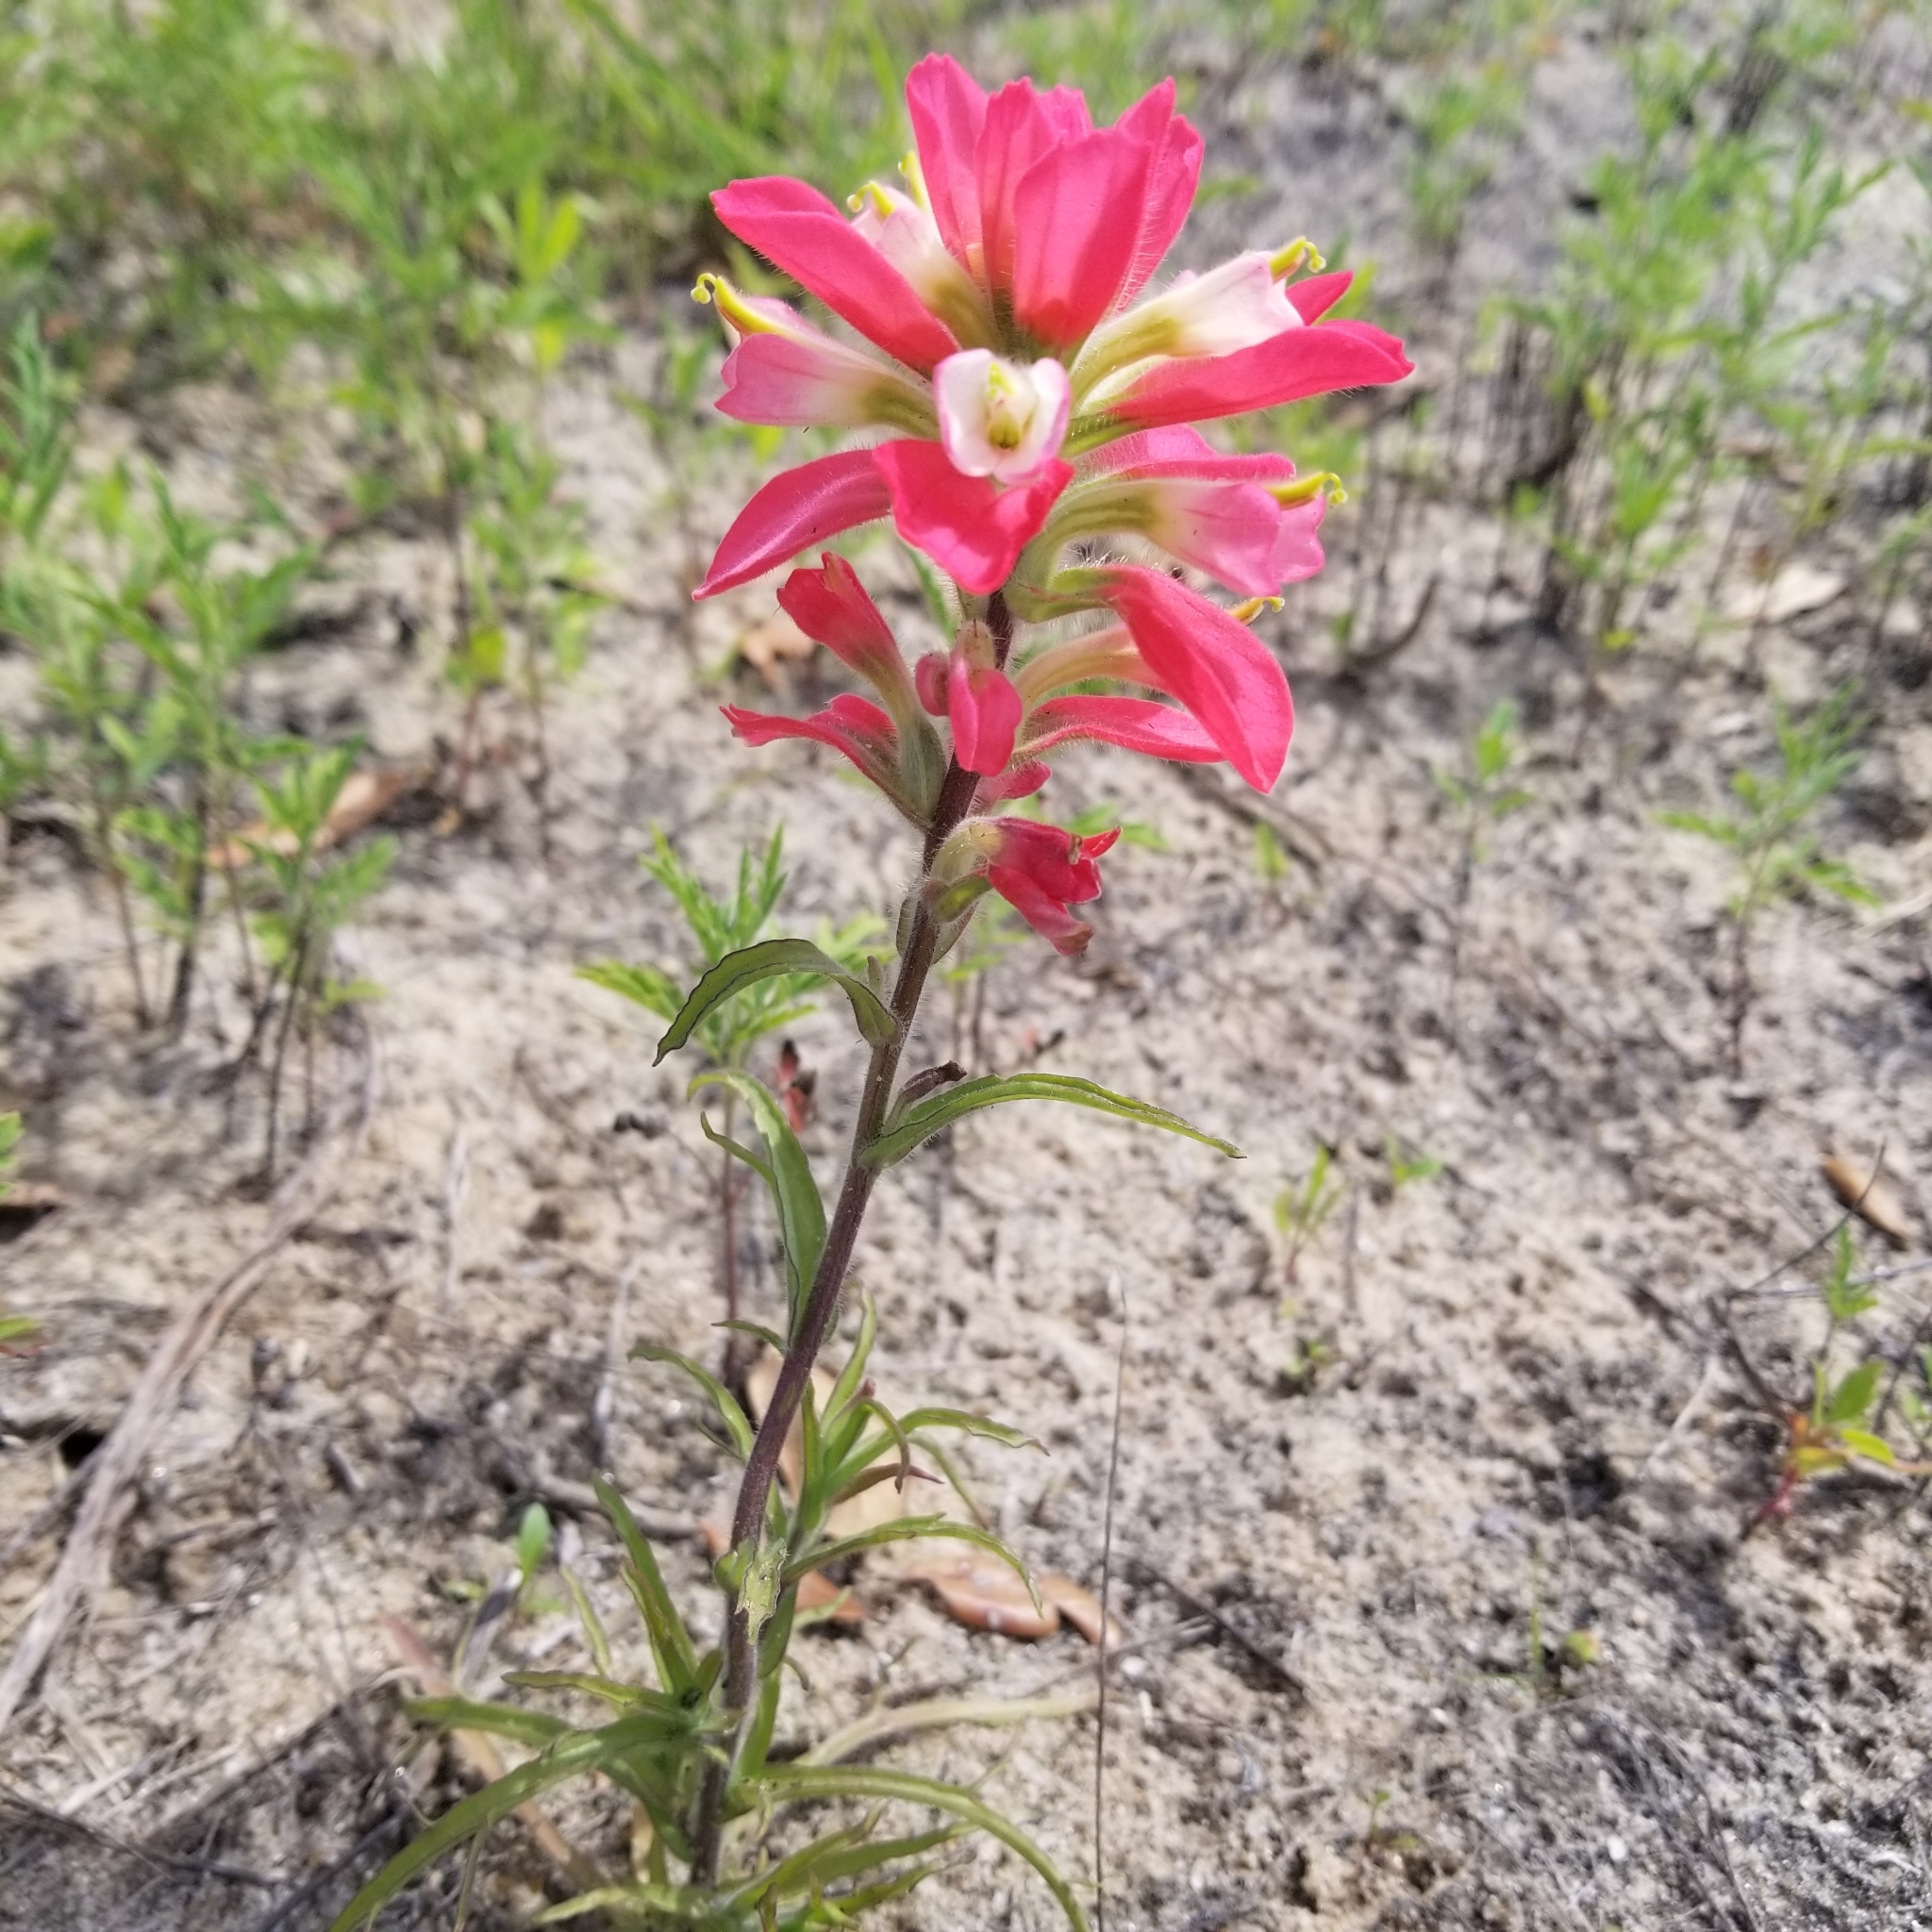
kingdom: Plantae
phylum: Tracheophyta
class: Magnoliopsida
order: Lamiales
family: Orobanchaceae
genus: Castilleja
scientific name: Castilleja indivisa
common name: Texas paintbrush
